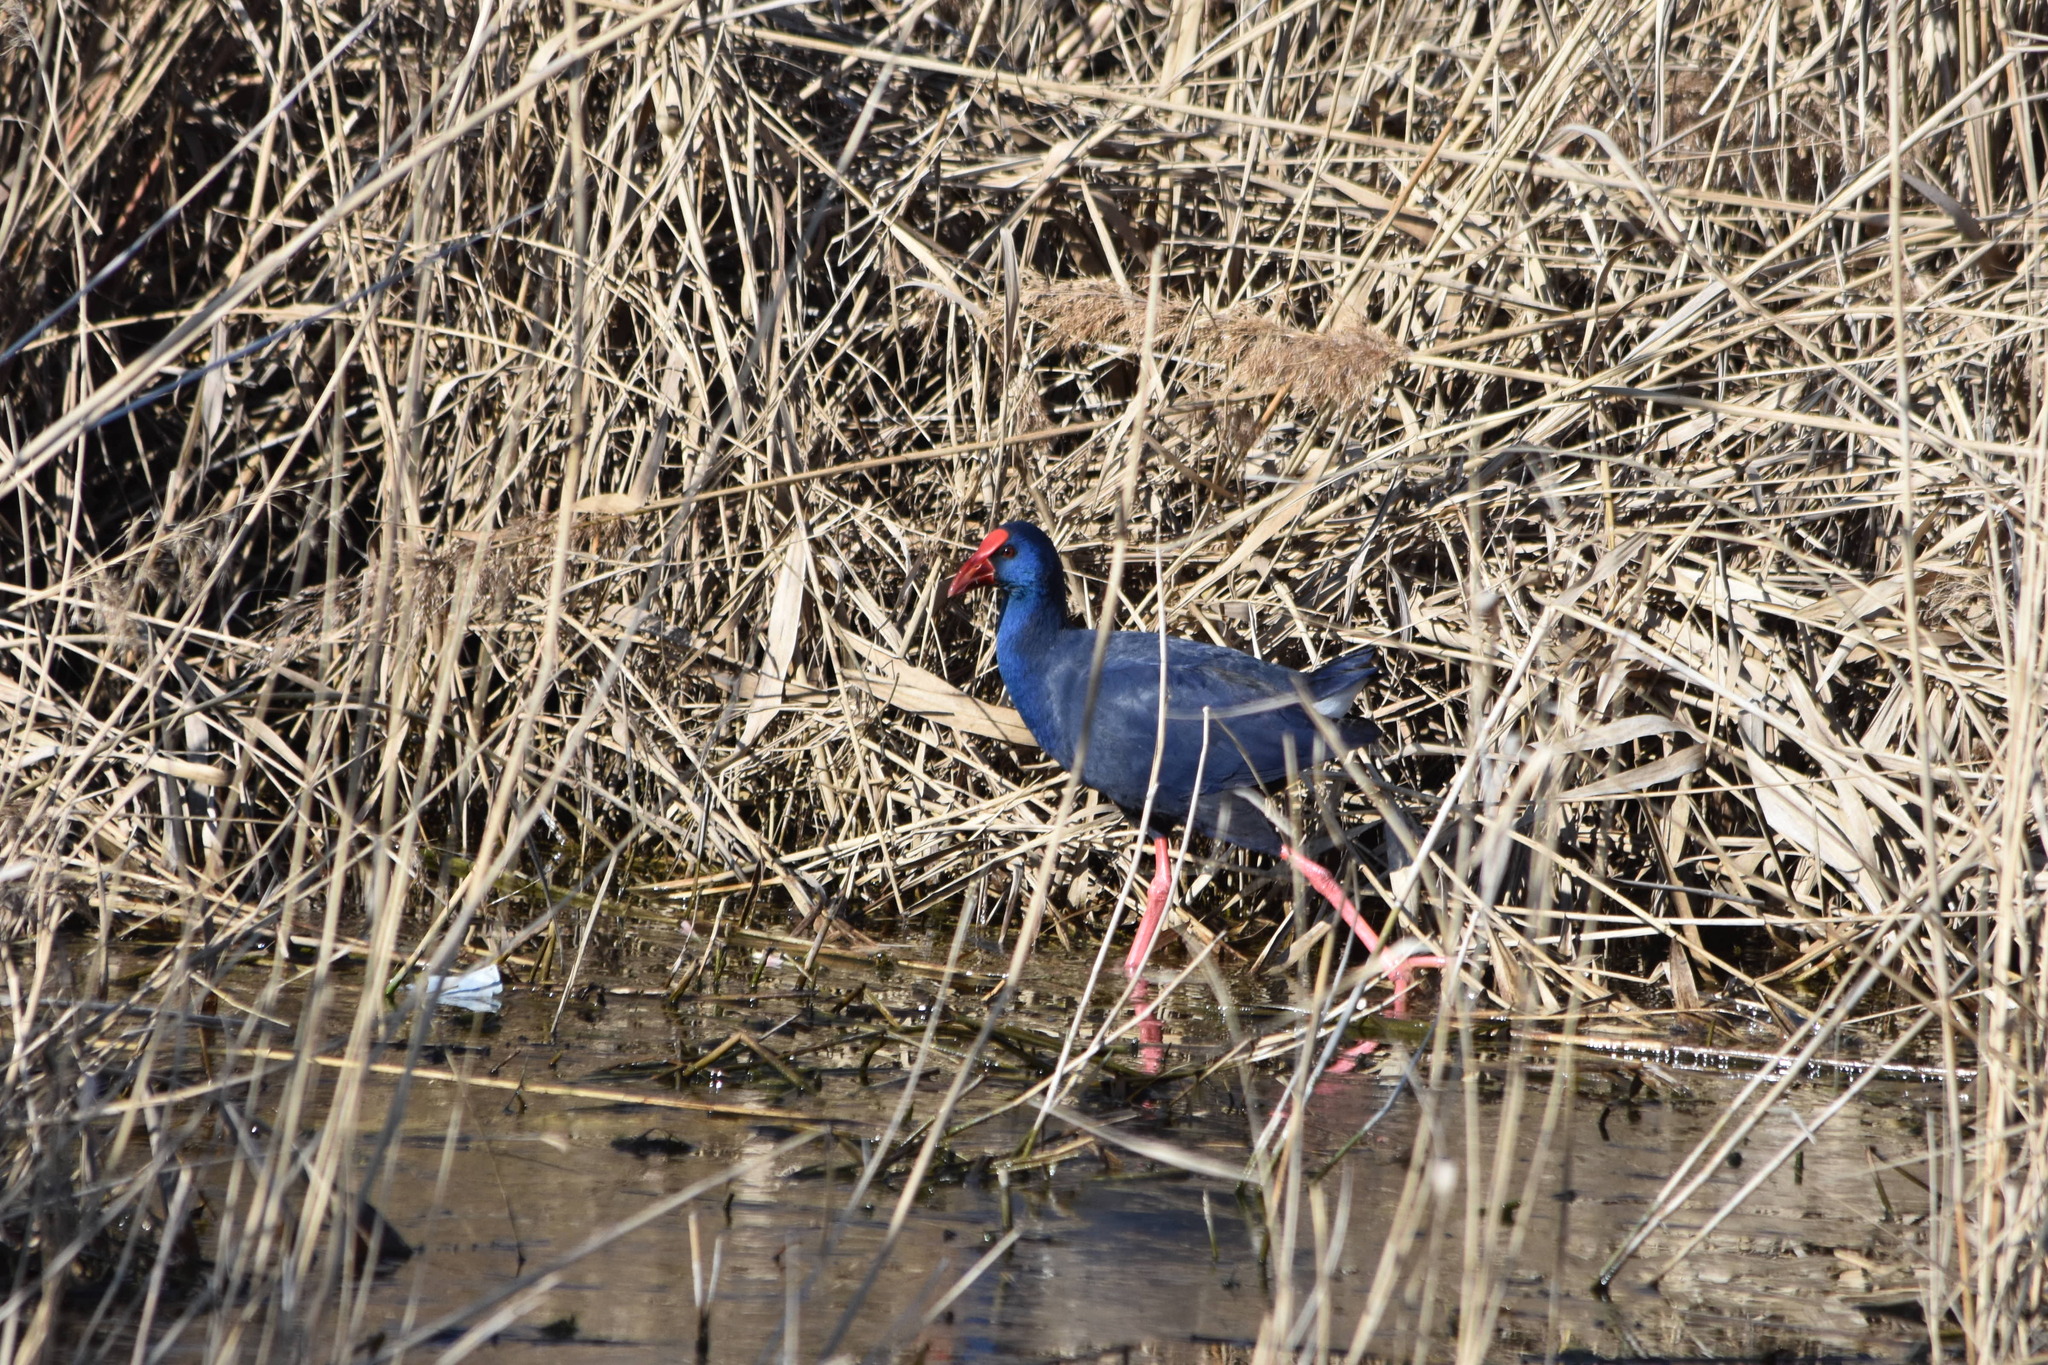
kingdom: Animalia
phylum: Chordata
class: Aves
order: Gruiformes
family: Rallidae
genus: Porphyrio
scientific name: Porphyrio porphyrio
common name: Purple swamphen
